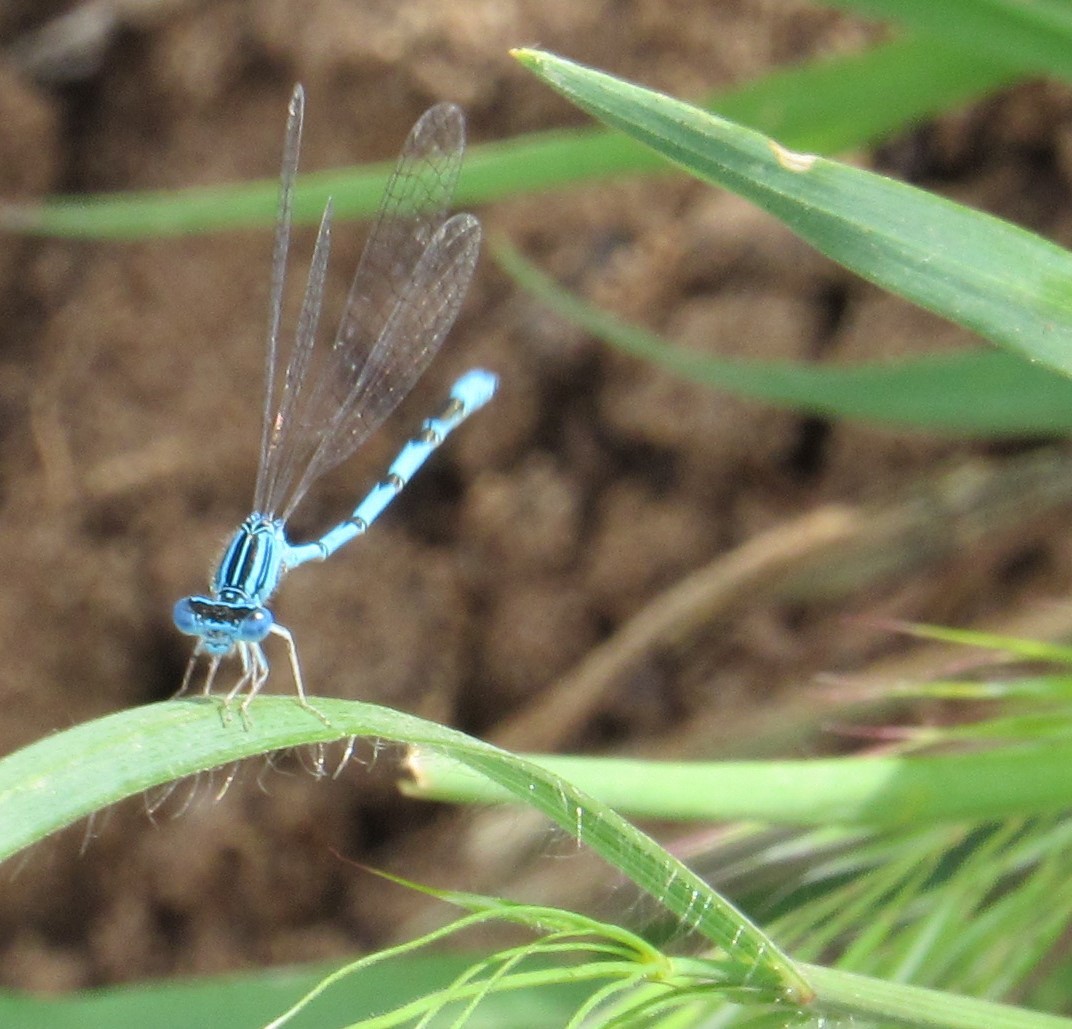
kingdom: Animalia
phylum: Arthropoda
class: Insecta
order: Odonata
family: Coenagrionidae
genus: Enallagma
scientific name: Enallagma basidens
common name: Double-striped bluet
